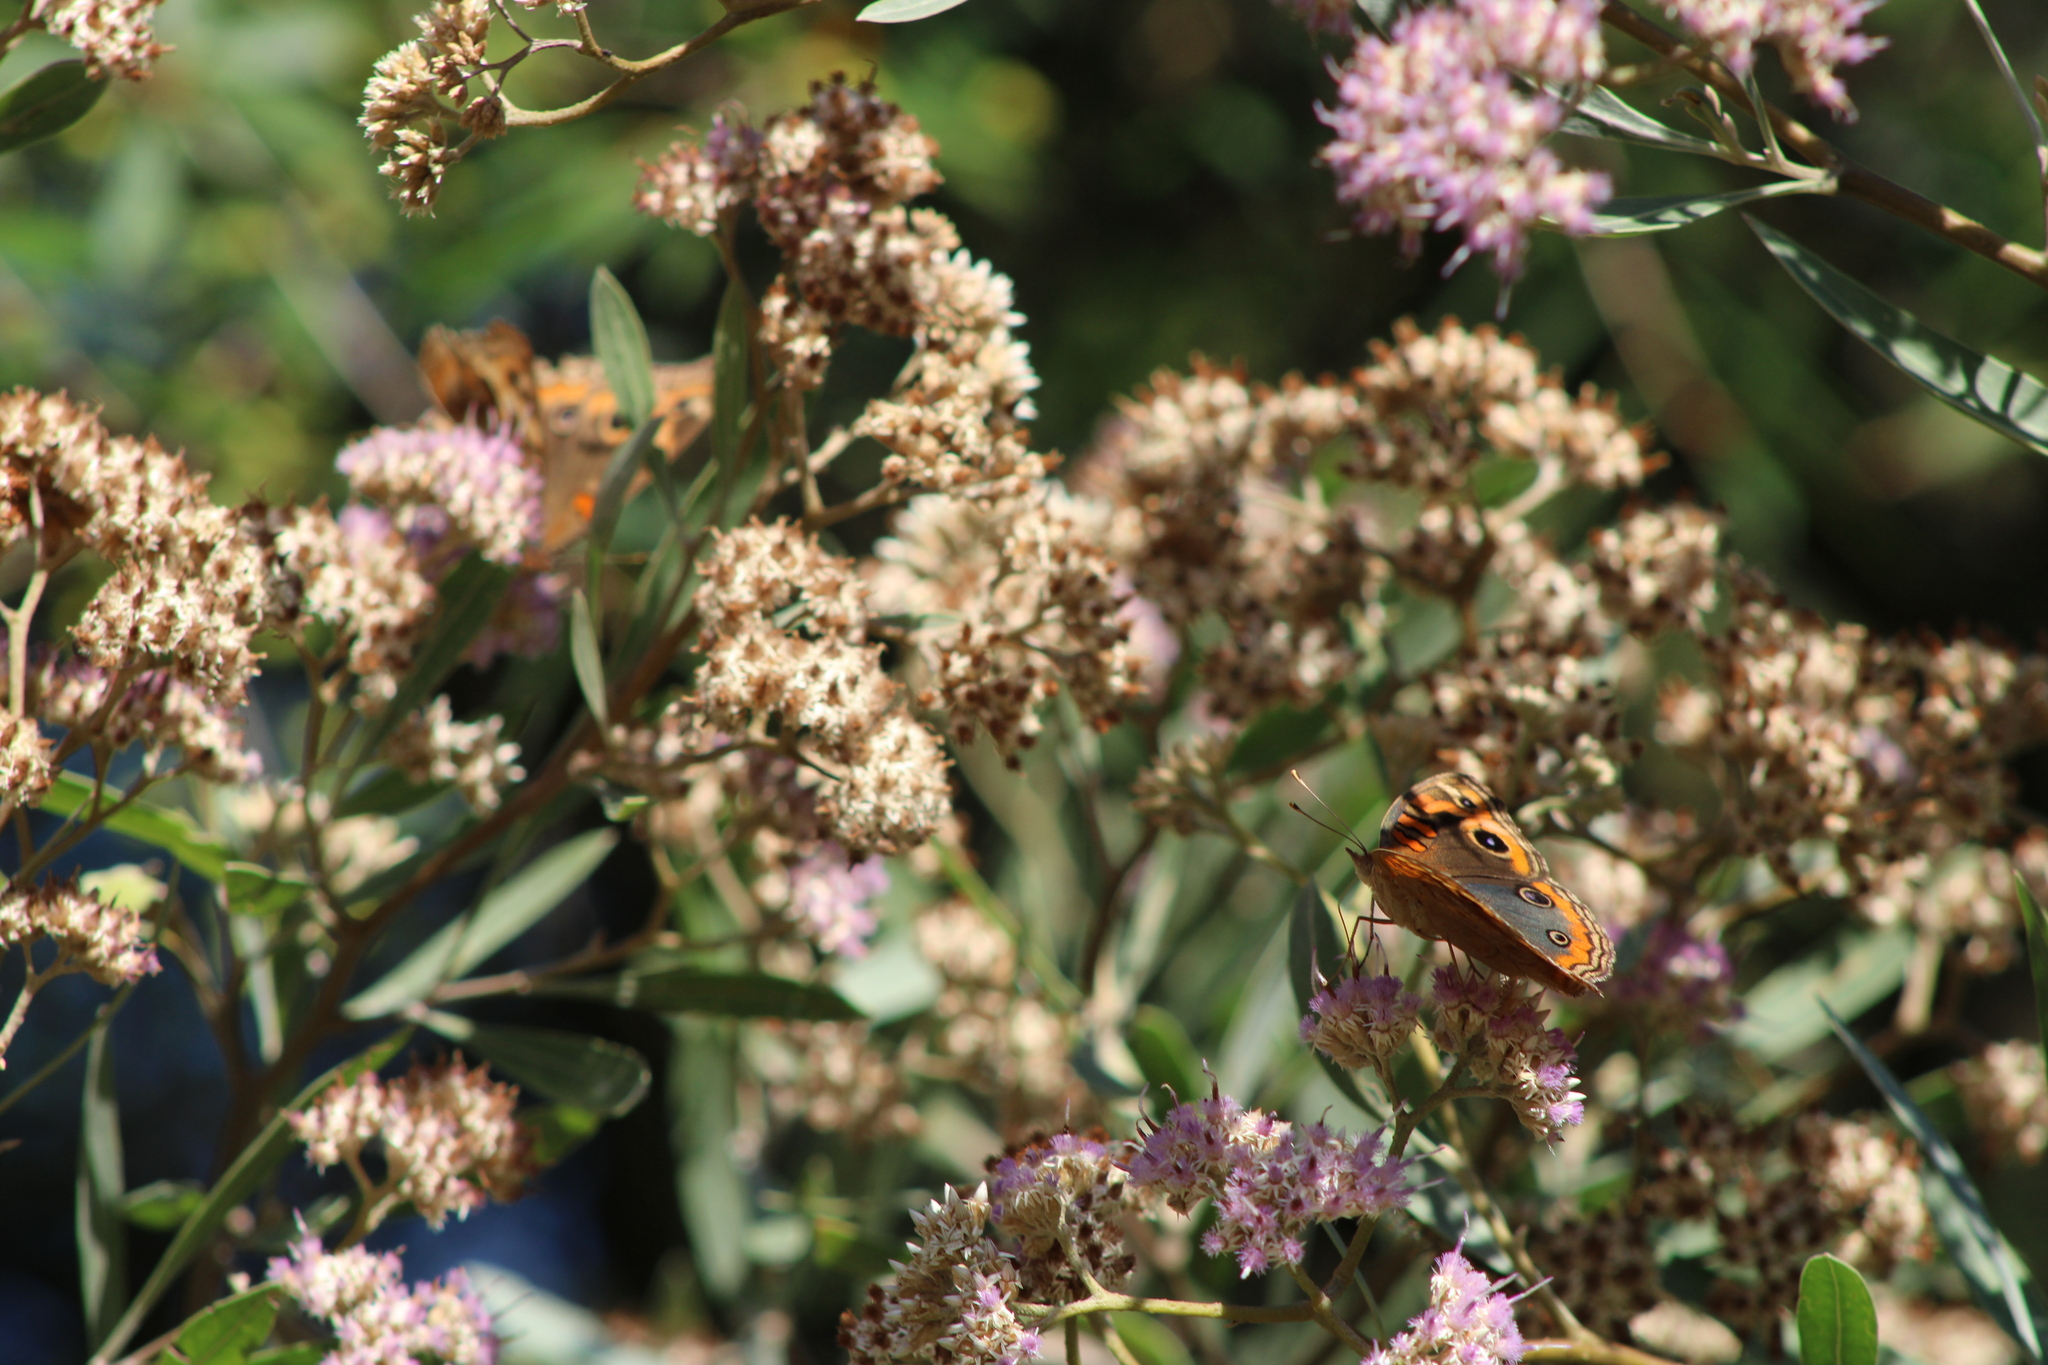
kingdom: Animalia
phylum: Arthropoda
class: Insecta
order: Lepidoptera
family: Nymphalidae
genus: Junonia
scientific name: Junonia lavinia
